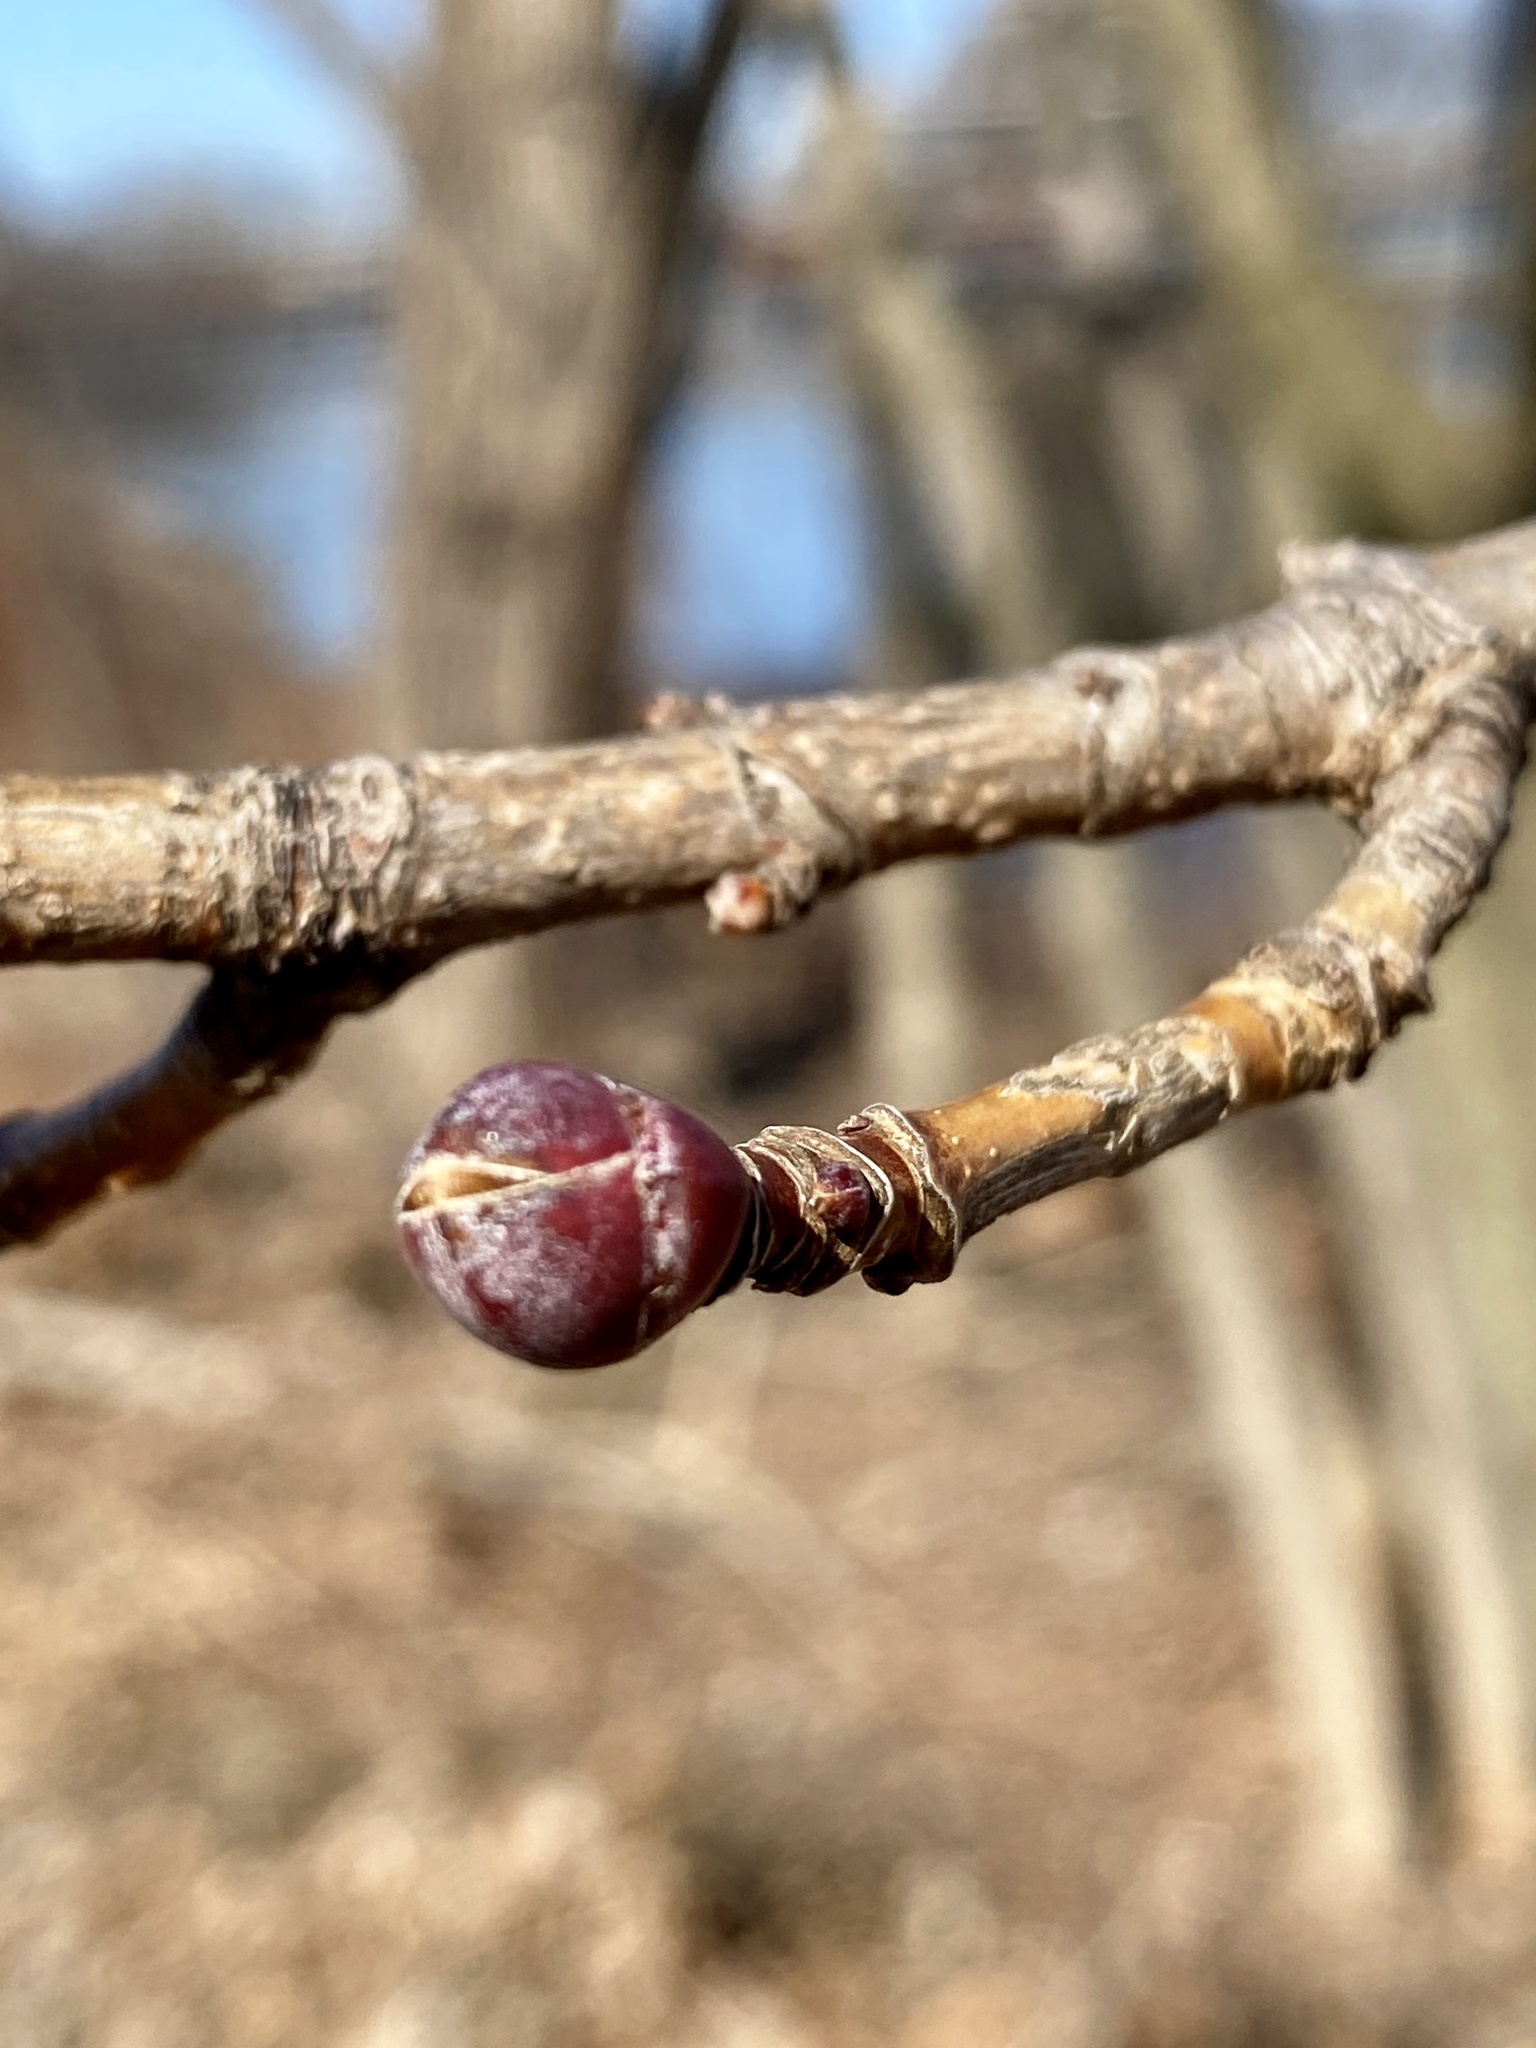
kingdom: Plantae
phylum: Tracheophyta
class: Magnoliopsida
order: Sapindales
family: Sapindaceae
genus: Acer
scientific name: Acer platanoides
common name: Norway maple
